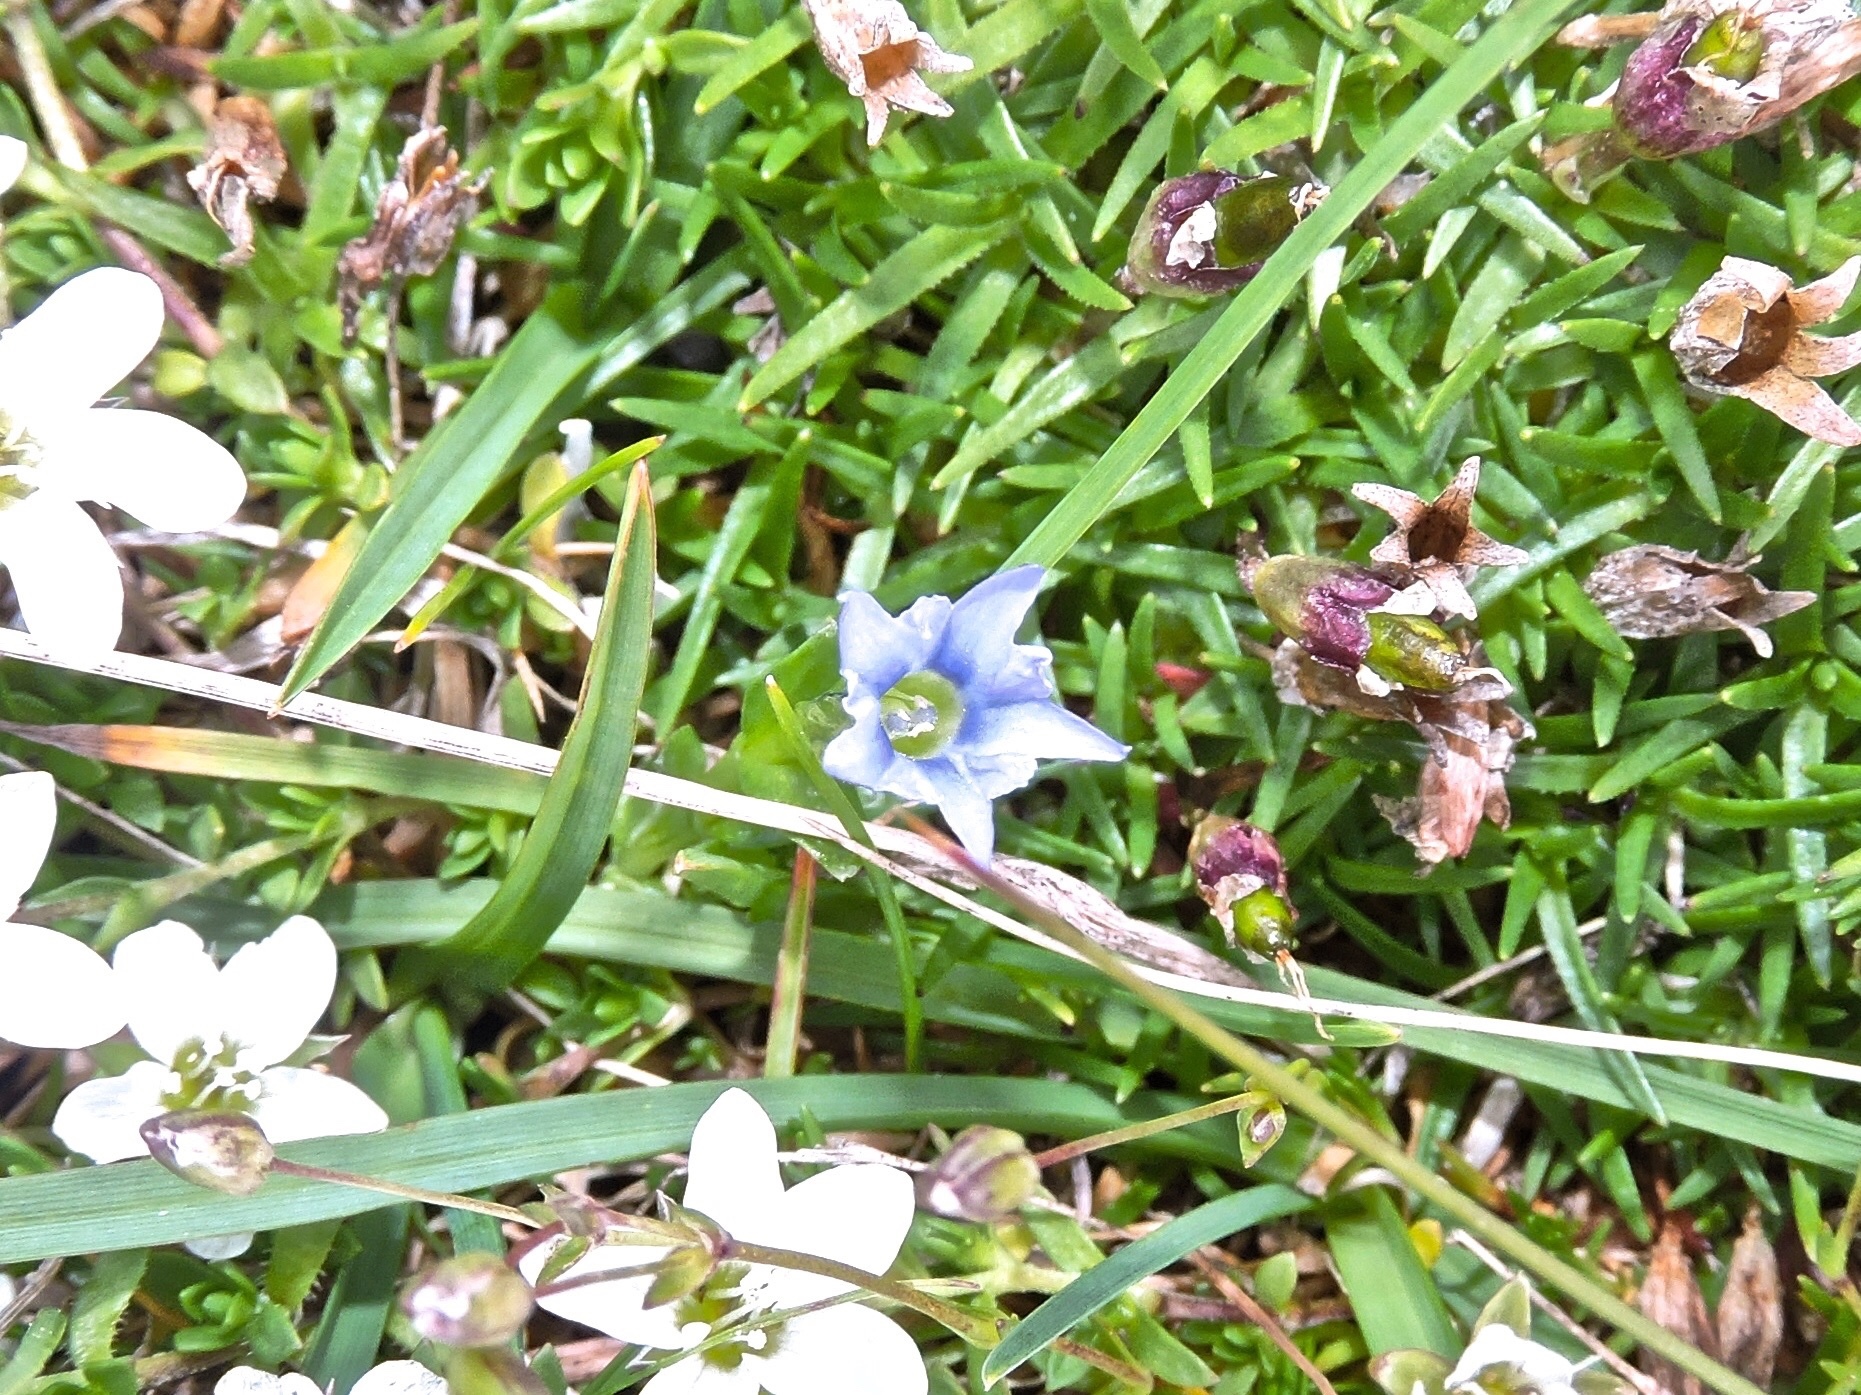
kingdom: Plantae
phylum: Tracheophyta
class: Magnoliopsida
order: Gentianales
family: Gentianaceae
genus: Gentiana
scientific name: Gentiana prostrata
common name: Moss gentian
